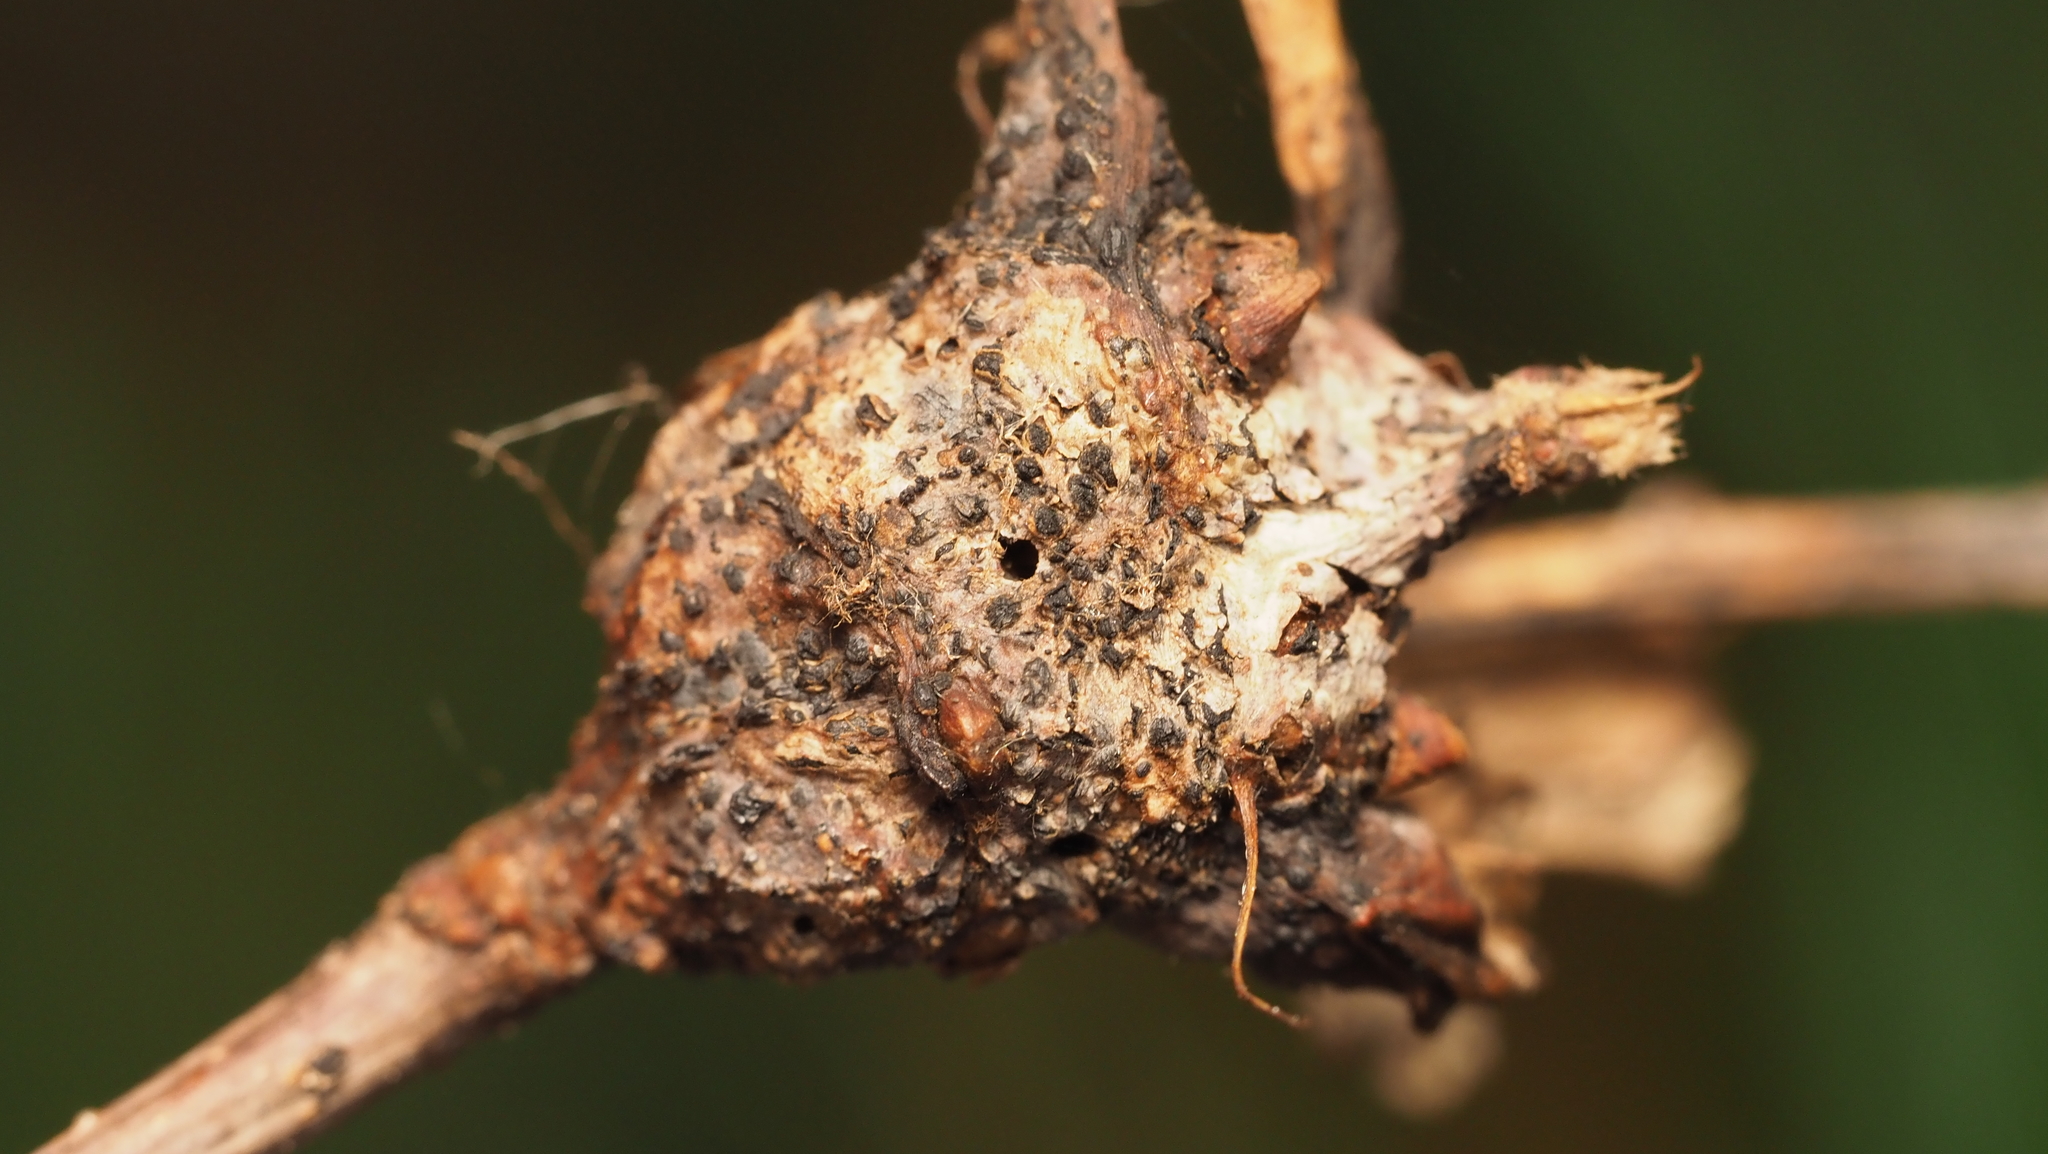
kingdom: Animalia
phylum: Arthropoda
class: Insecta
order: Hymenoptera
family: Cynipidae
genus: Neuroterus
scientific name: Neuroterus quercusbaccarum
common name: Common spangle gall
